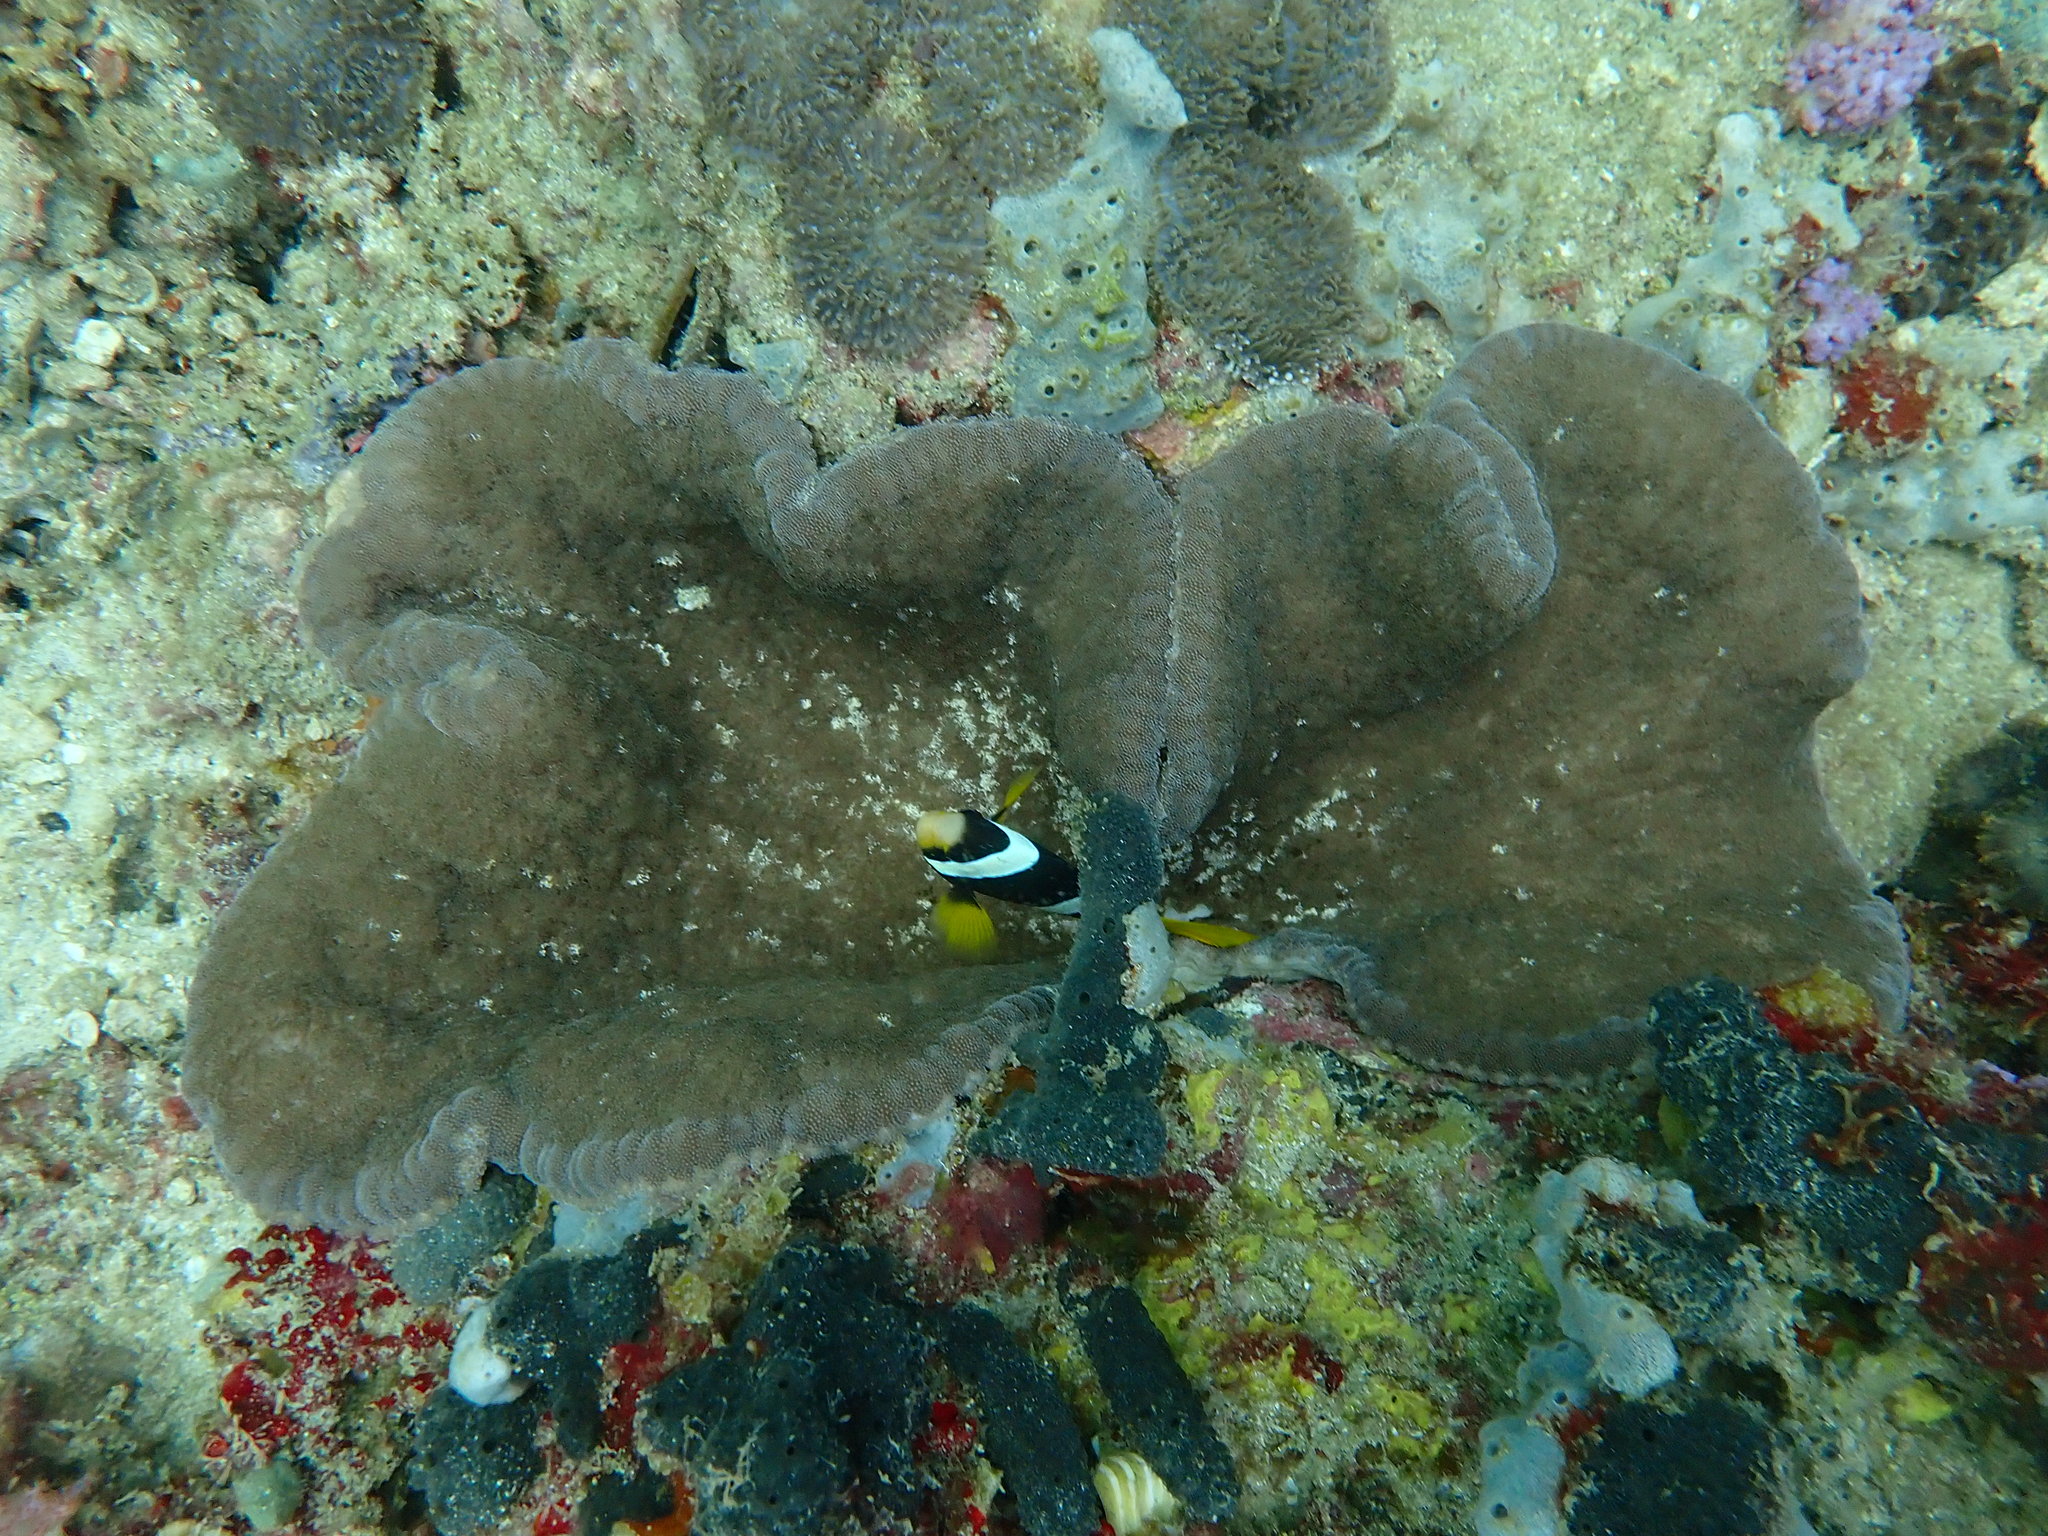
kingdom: Animalia
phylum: Cnidaria
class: Anthozoa
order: Actiniaria
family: Thalassianthidae
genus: Cryptodendrum
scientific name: Cryptodendrum adhaesivum
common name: Adhesive sea anemone
